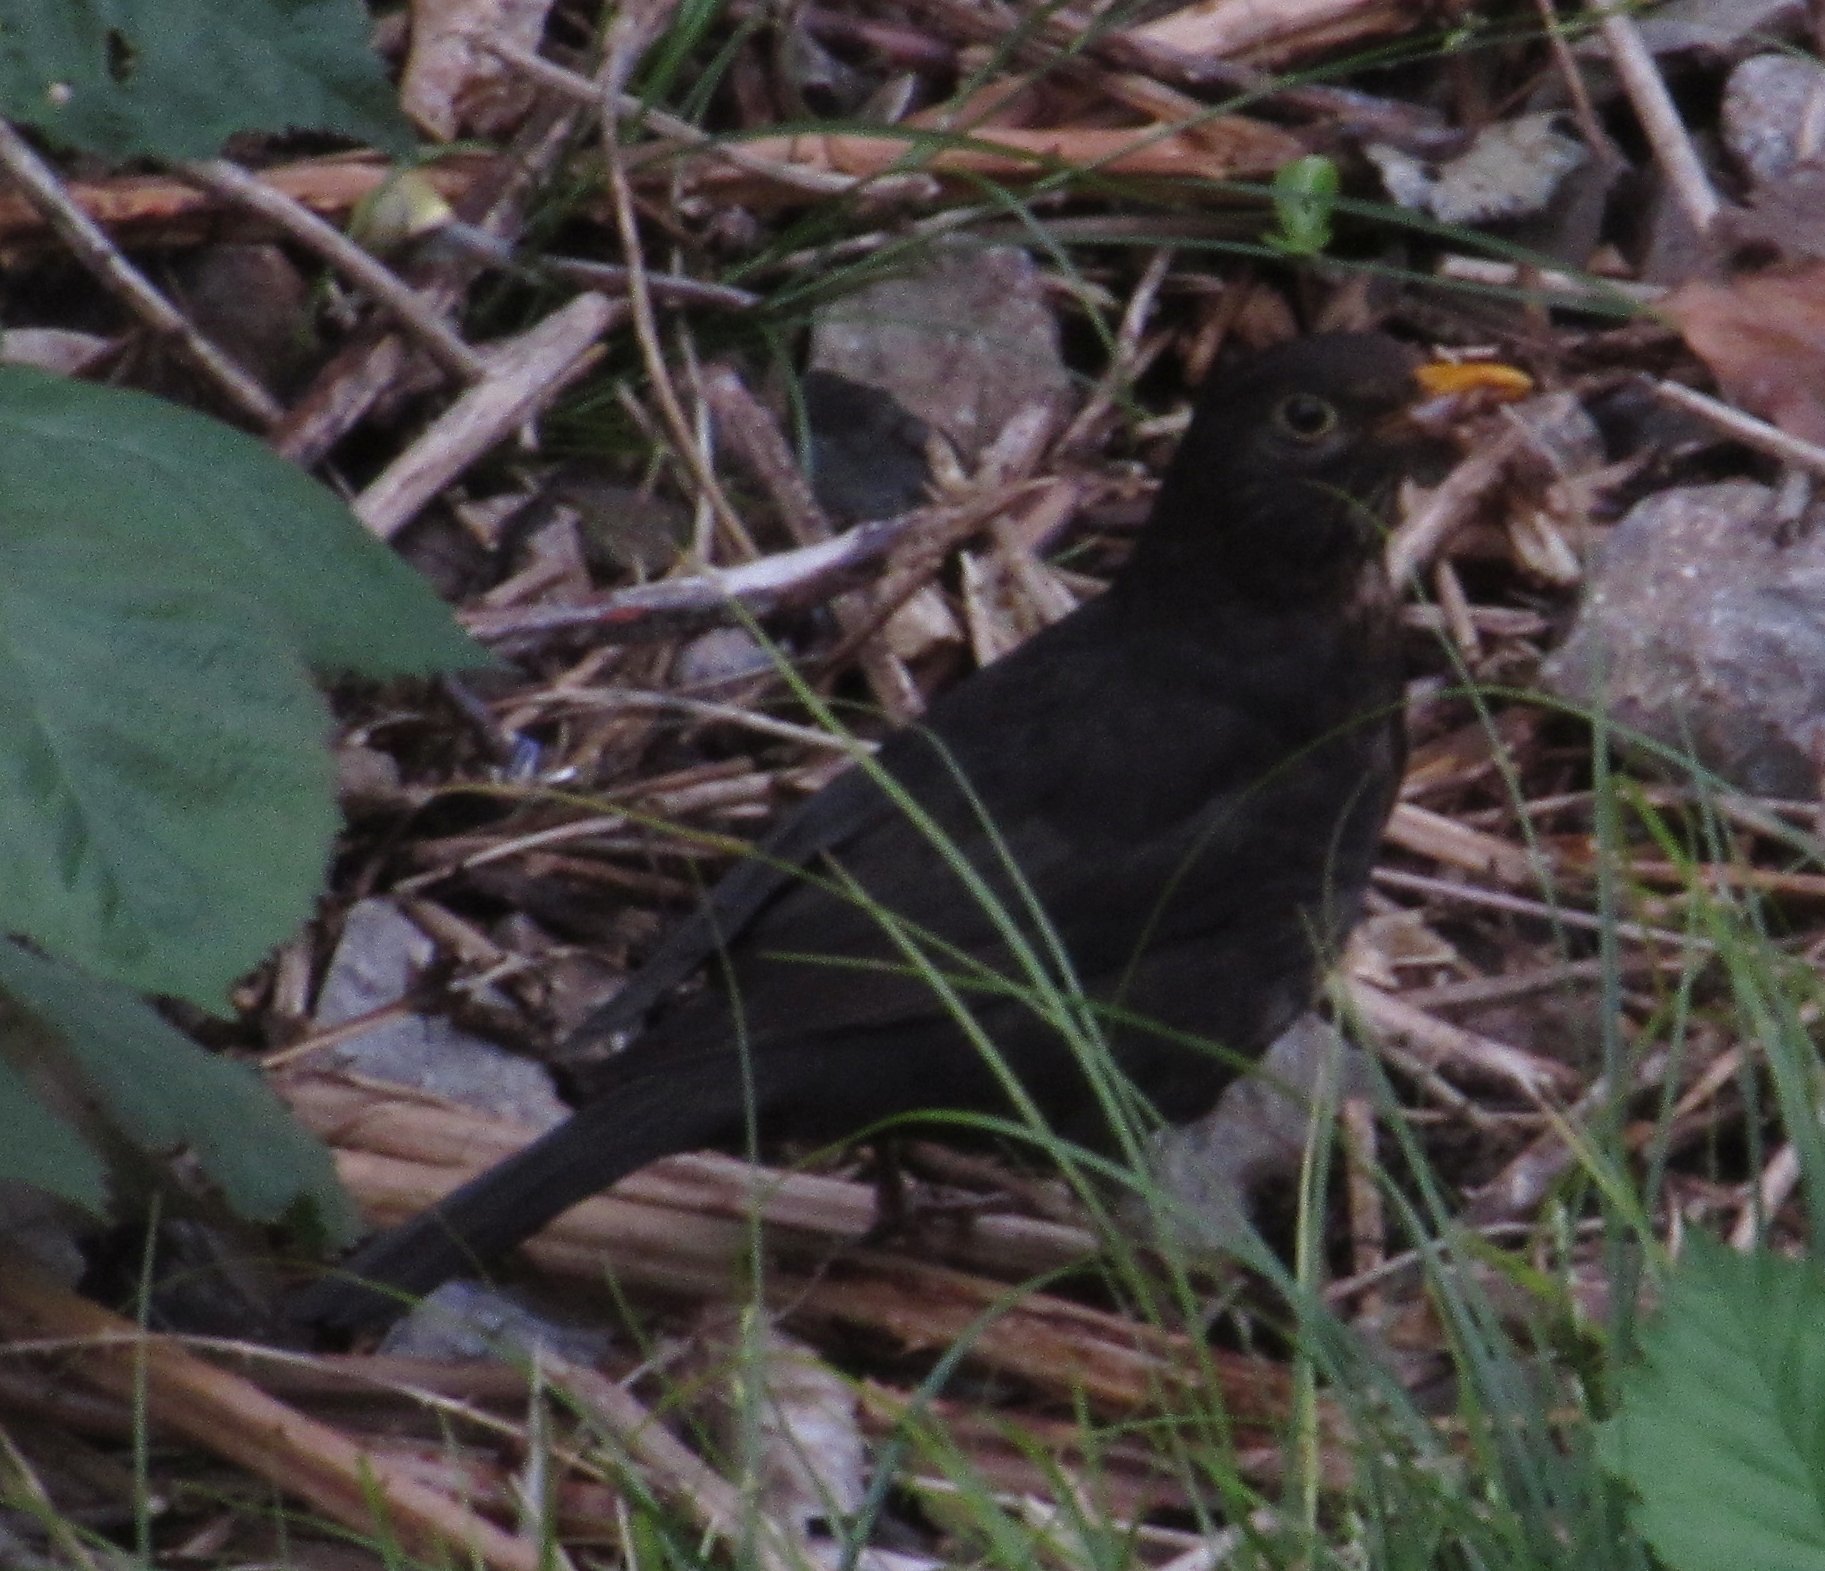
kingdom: Animalia
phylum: Chordata
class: Aves
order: Passeriformes
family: Turdidae
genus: Turdus
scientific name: Turdus merula
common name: Common blackbird
